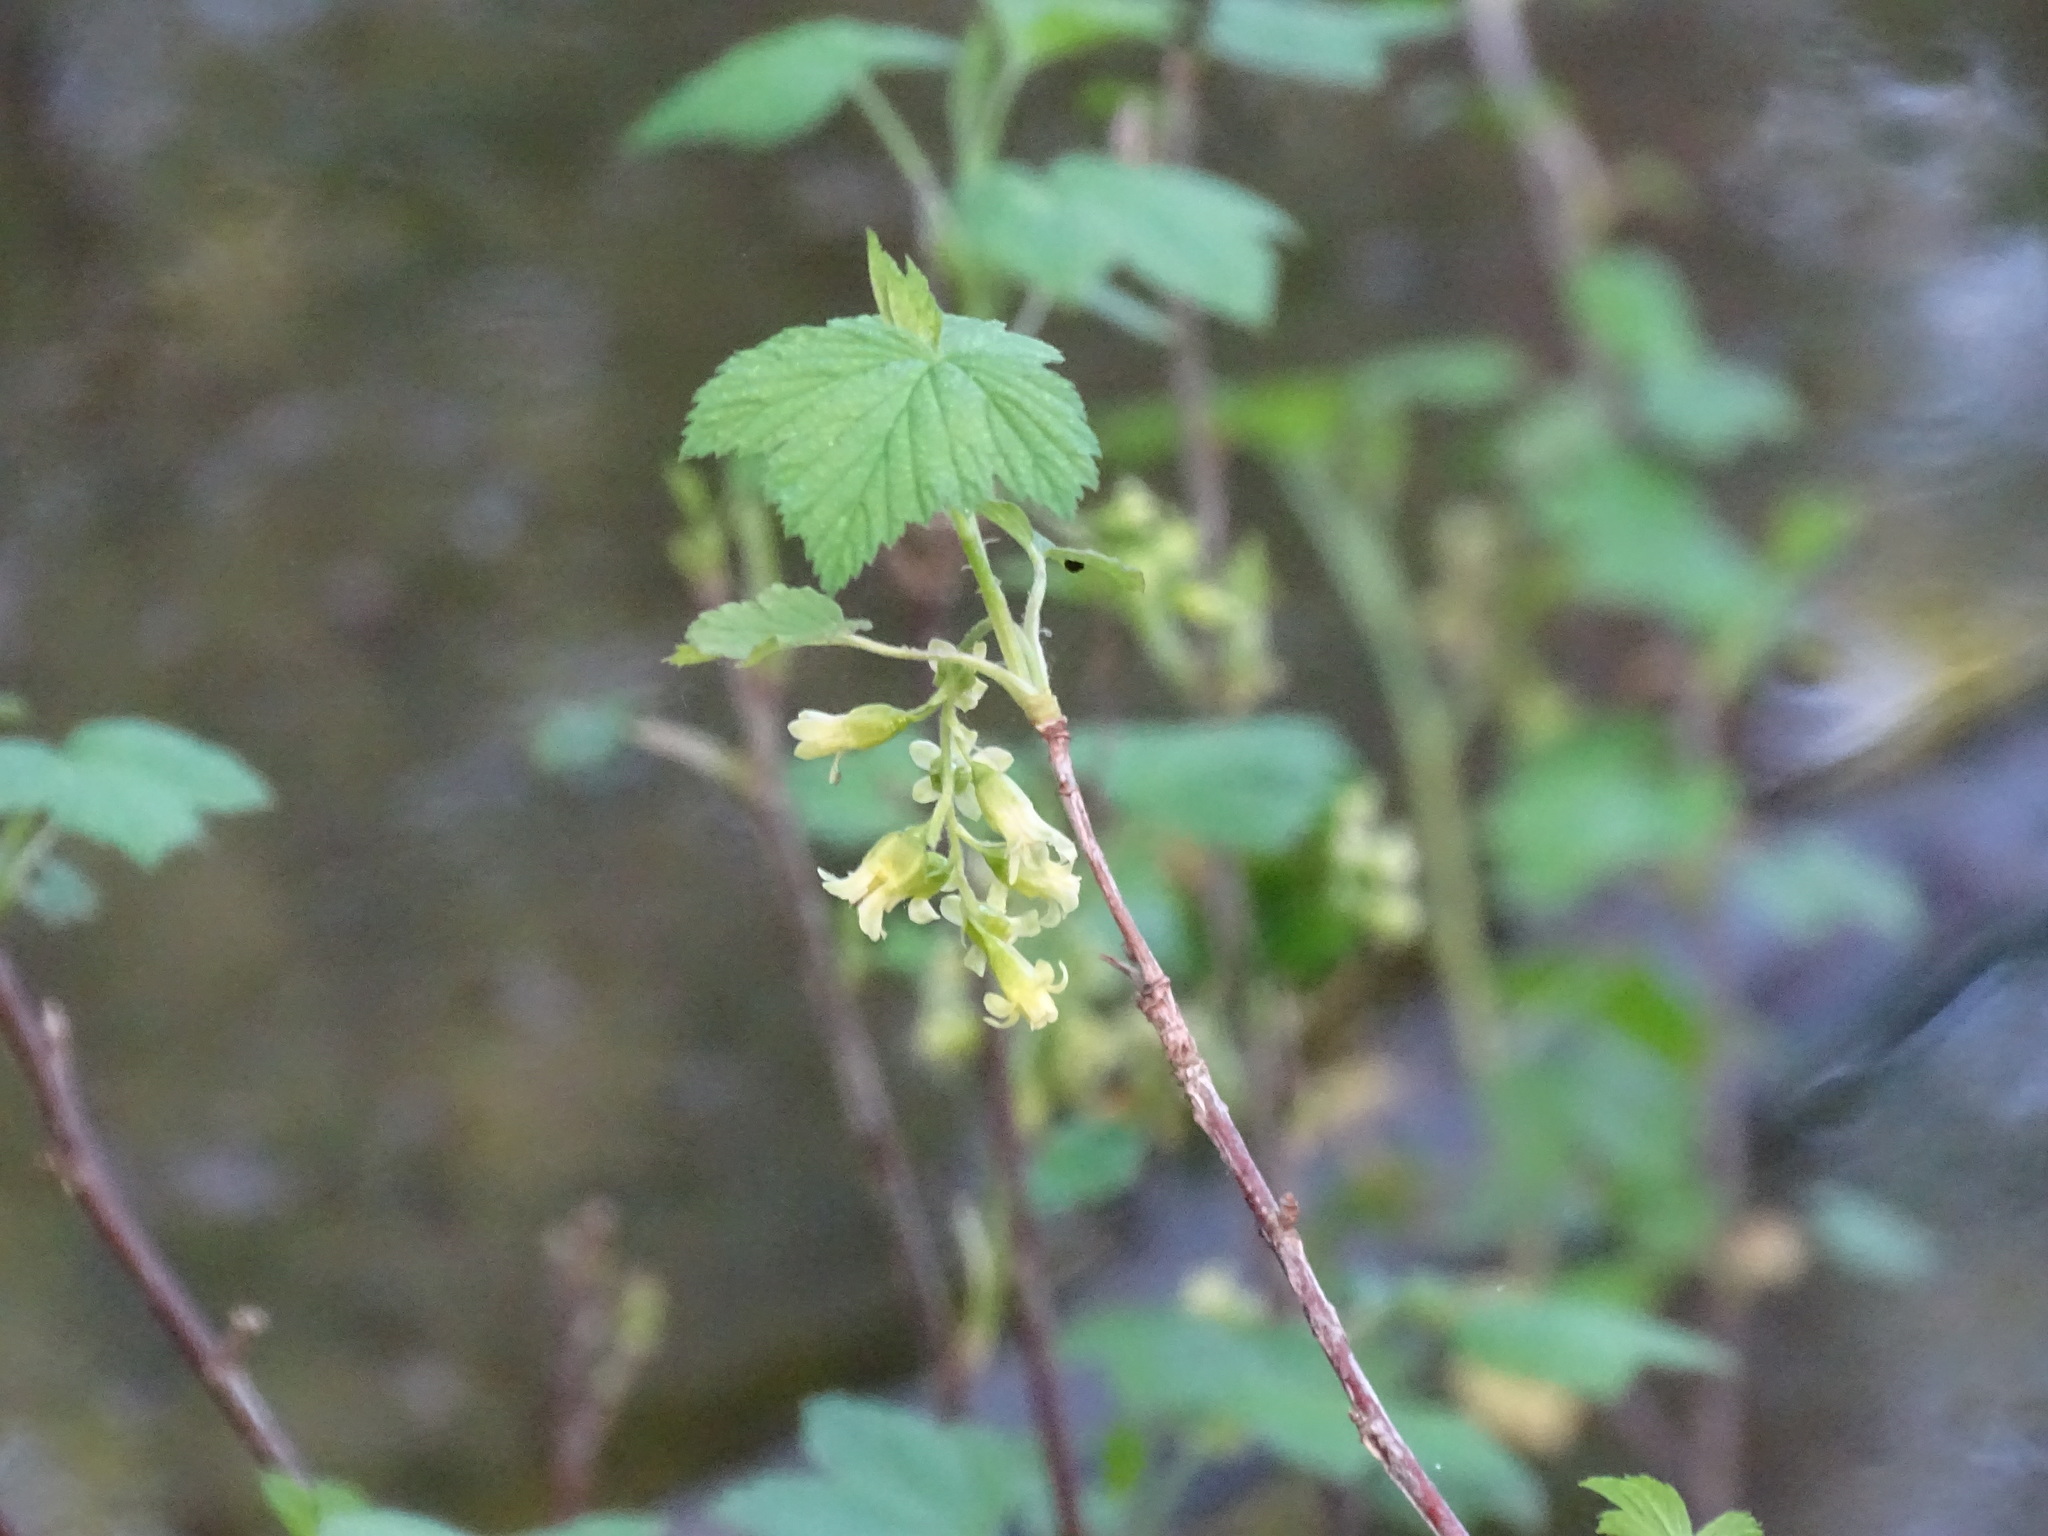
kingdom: Plantae
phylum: Tracheophyta
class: Magnoliopsida
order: Saxifragales
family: Grossulariaceae
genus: Ribes
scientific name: Ribes americanum
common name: American black currant
